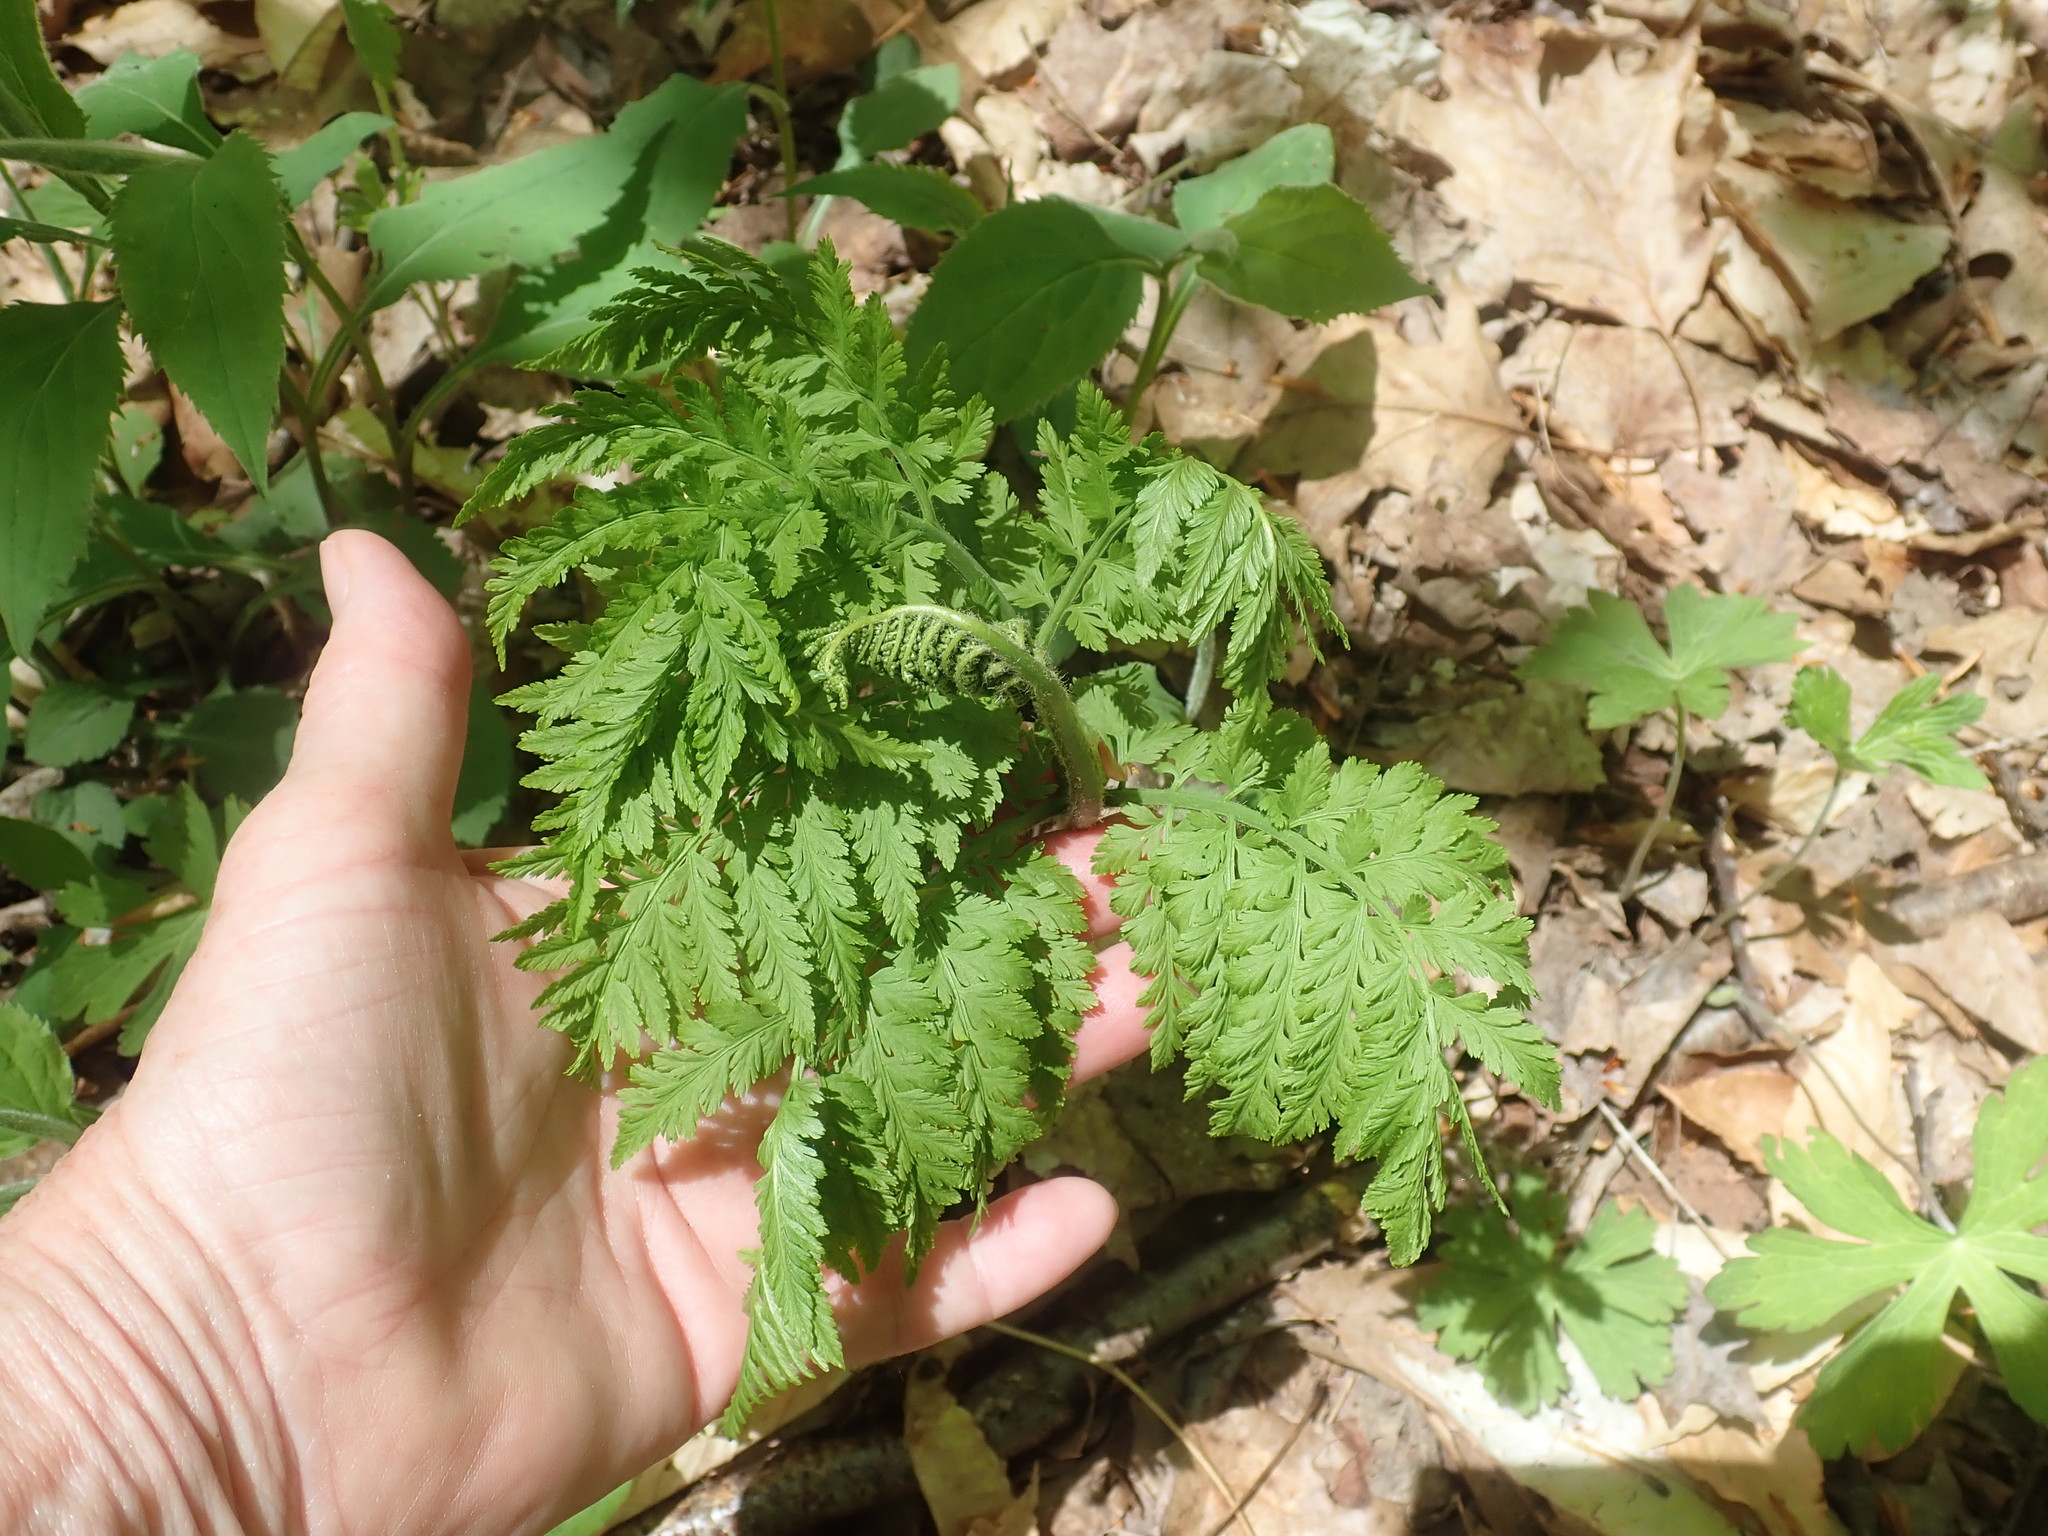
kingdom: Plantae
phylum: Tracheophyta
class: Polypodiopsida
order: Ophioglossales
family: Ophioglossaceae
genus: Botrypus
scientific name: Botrypus virginianus
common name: Common grapefern
